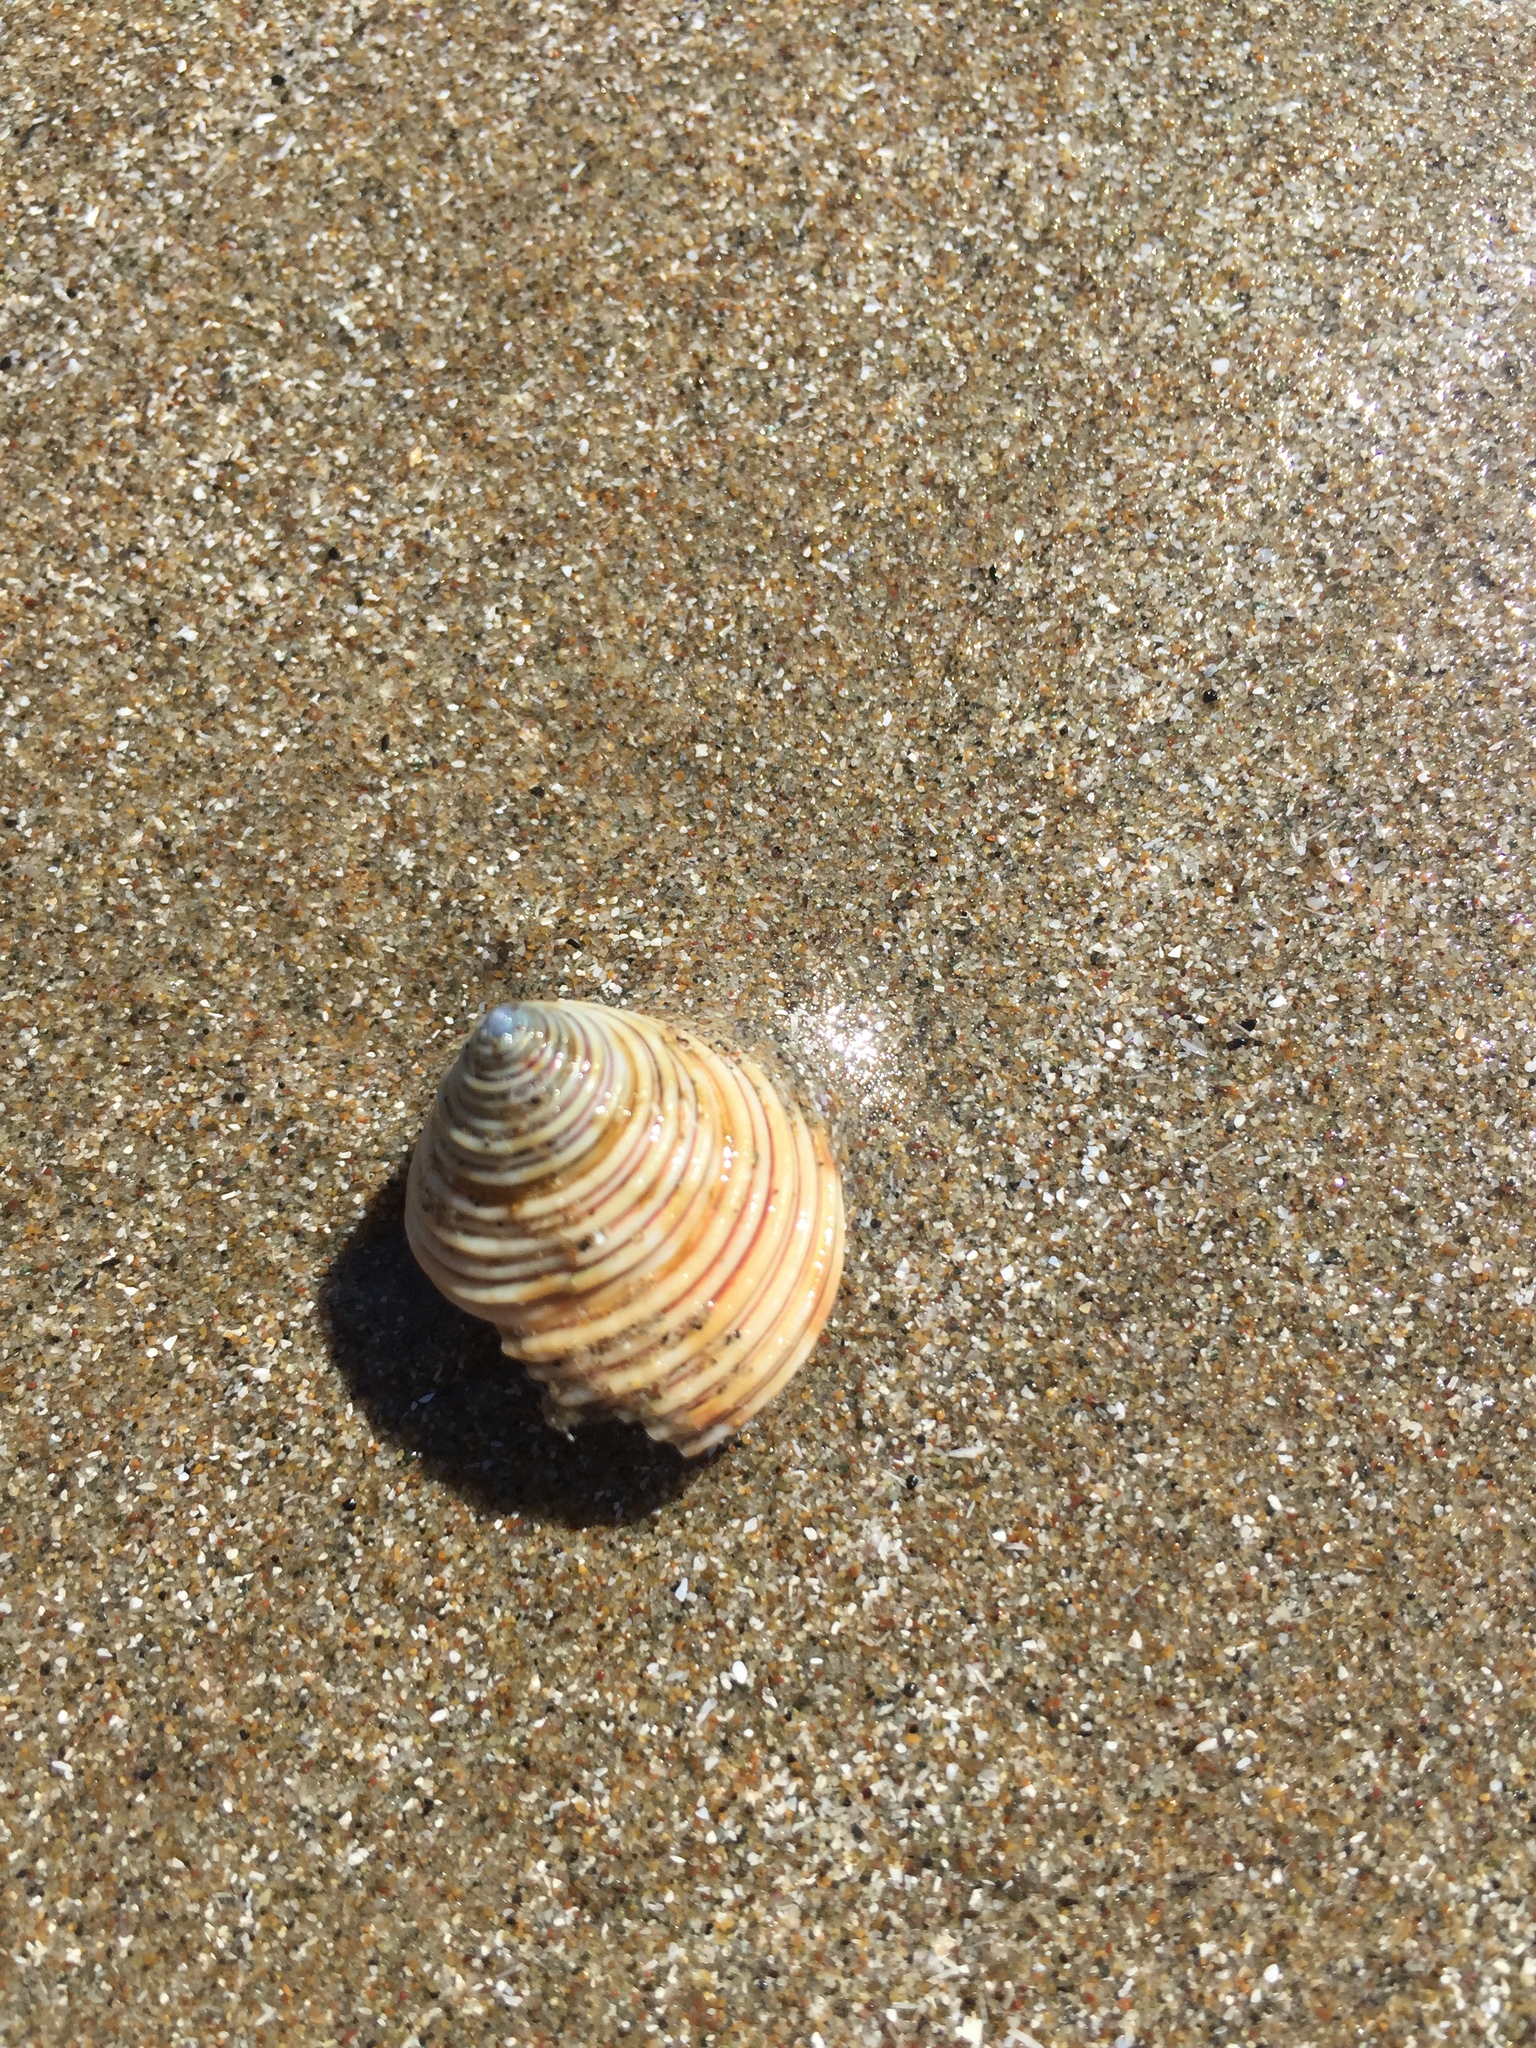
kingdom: Animalia
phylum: Mollusca
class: Gastropoda
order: Trochida
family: Calliostomatidae
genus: Calliostoma
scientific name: Calliostoma canaliculatum
